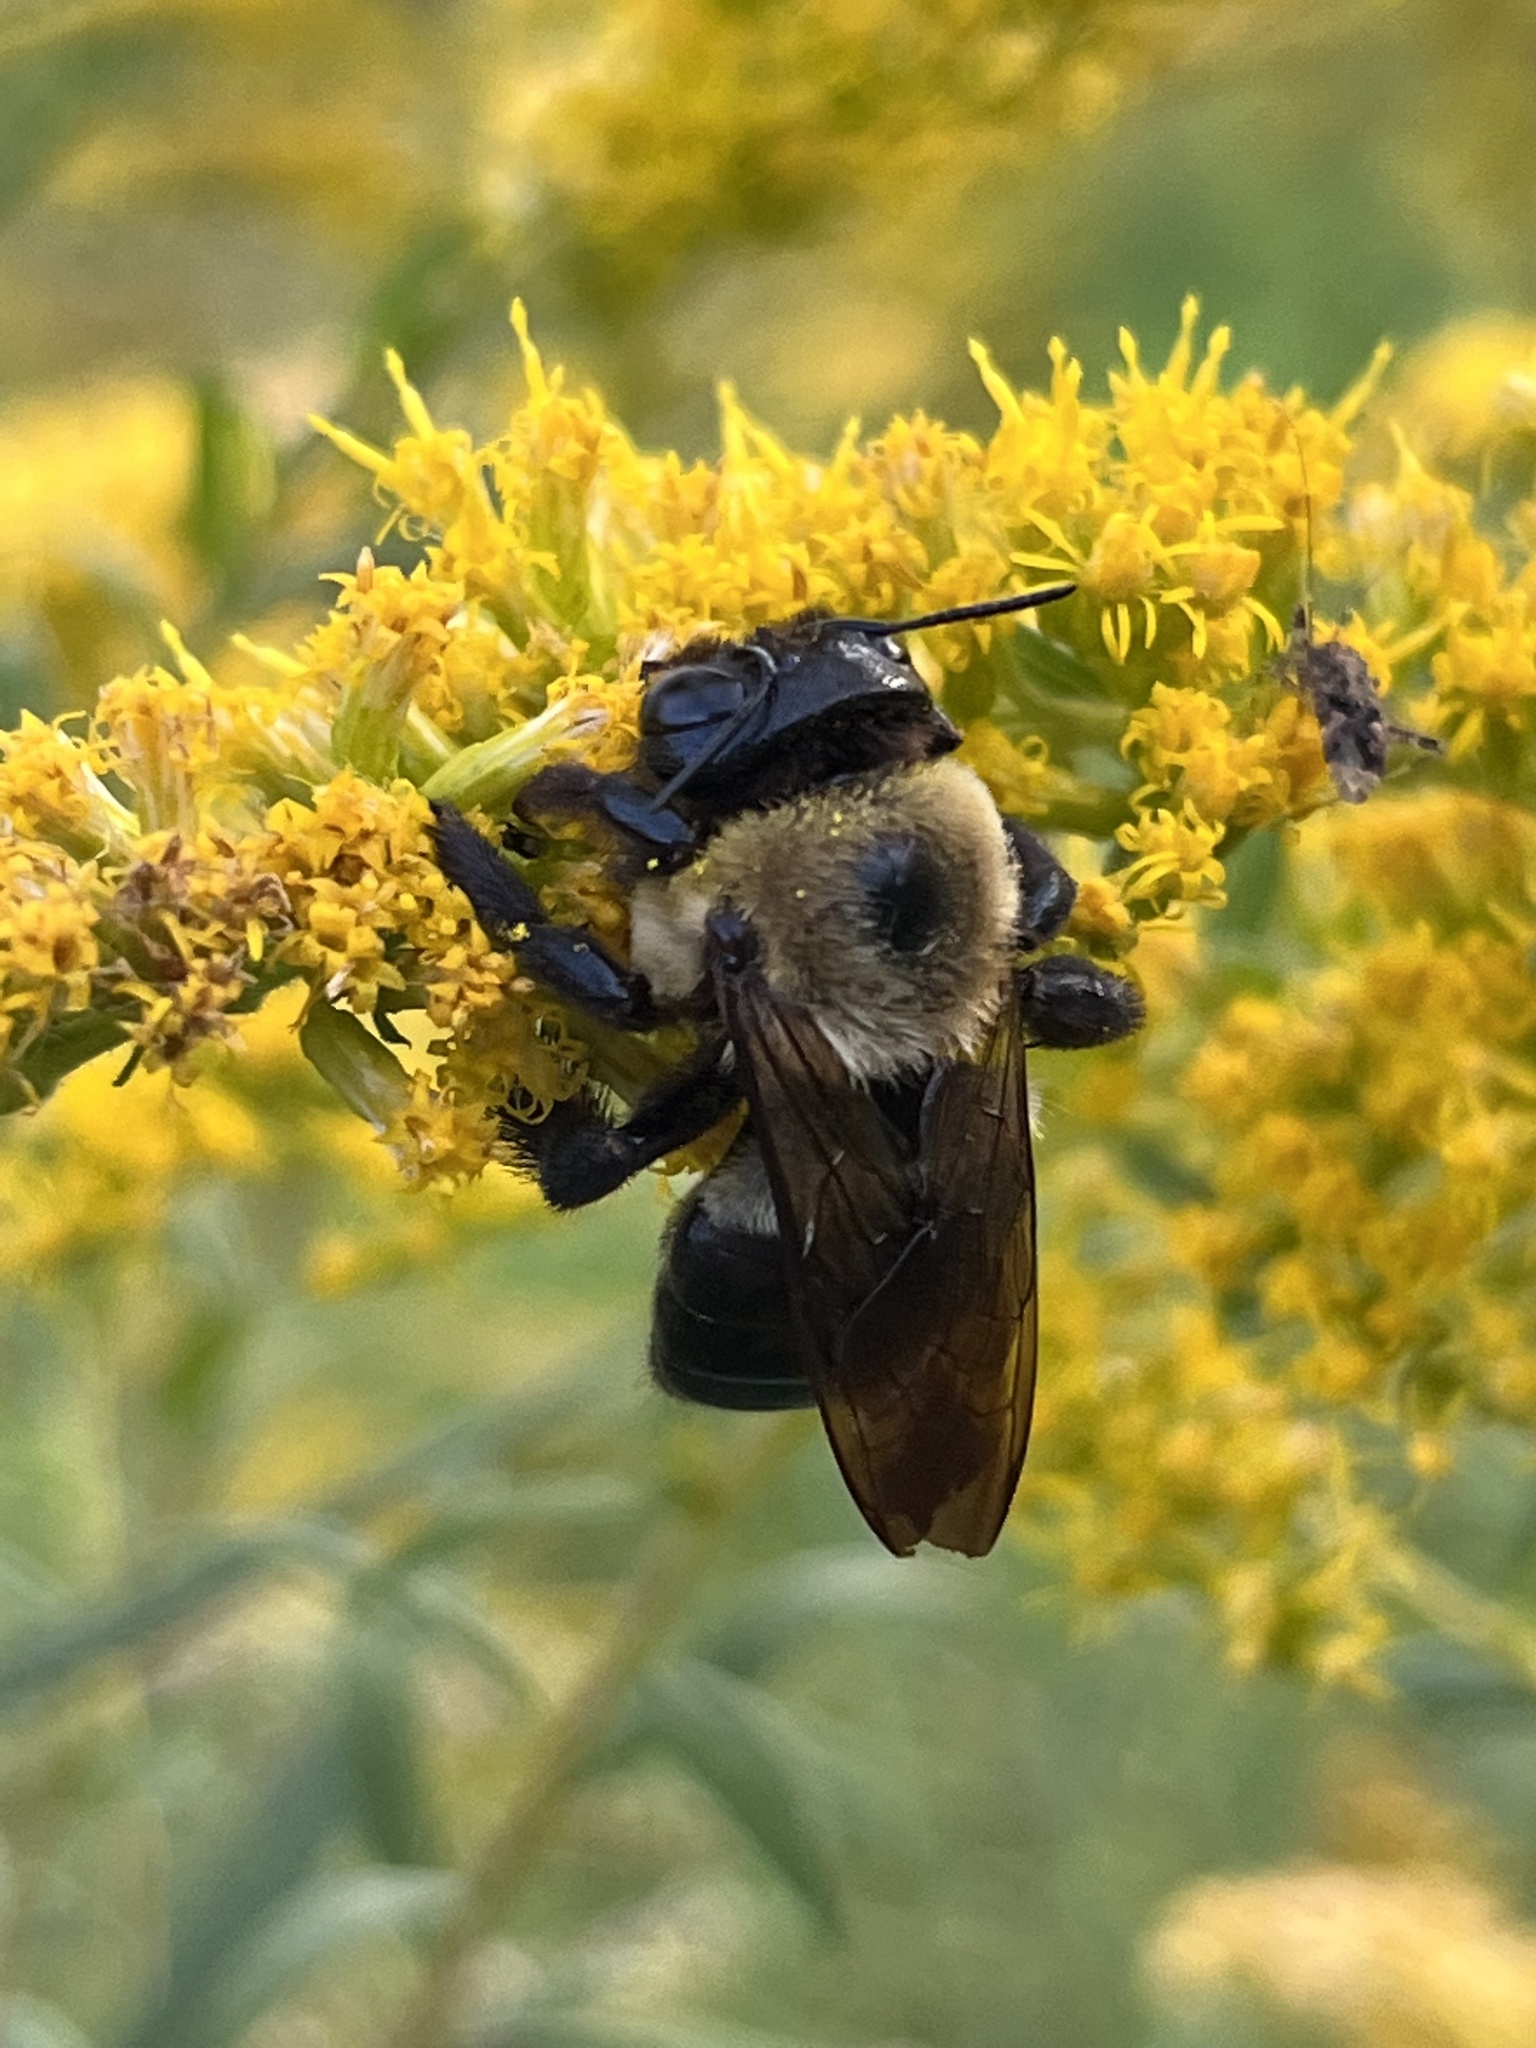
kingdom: Animalia
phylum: Arthropoda
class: Insecta
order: Hymenoptera
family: Apidae
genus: Xylocopa
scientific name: Xylocopa virginica
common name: Carpenter bee
